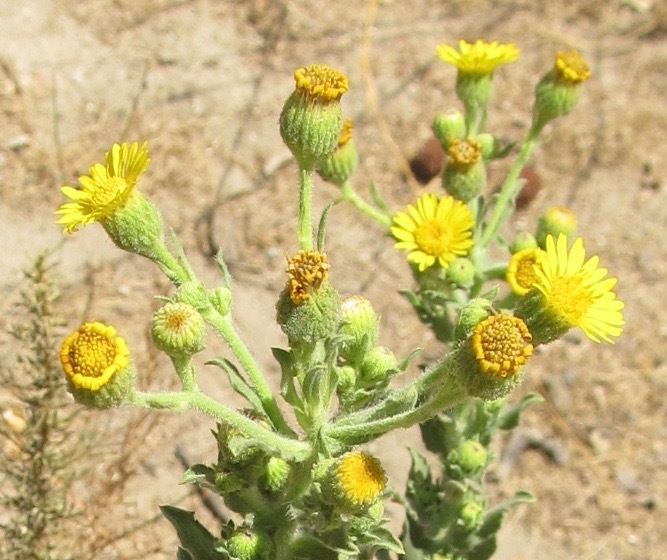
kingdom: Plantae
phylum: Tracheophyta
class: Magnoliopsida
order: Asterales
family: Asteraceae
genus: Heterotheca
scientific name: Heterotheca grandiflora
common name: Telegraphweed
